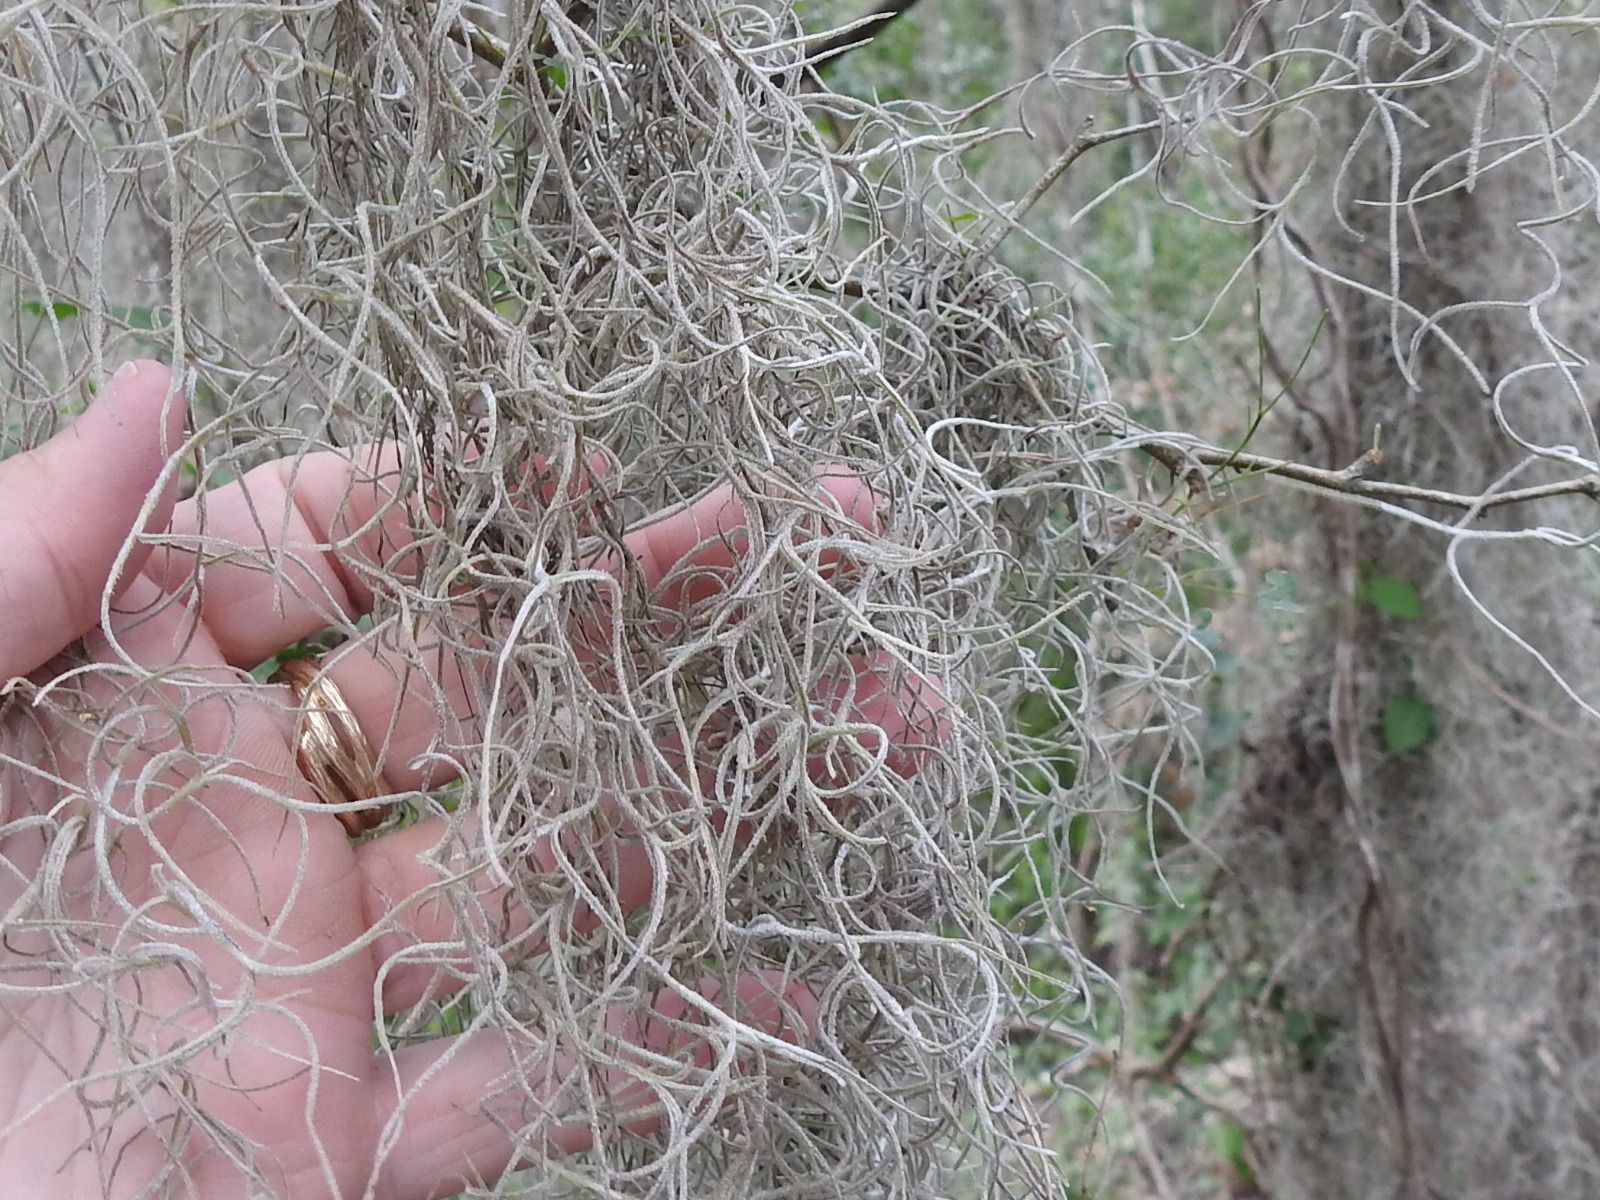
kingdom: Plantae
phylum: Tracheophyta
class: Liliopsida
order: Poales
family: Bromeliaceae
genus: Tillandsia
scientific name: Tillandsia usneoides
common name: Spanish moss
